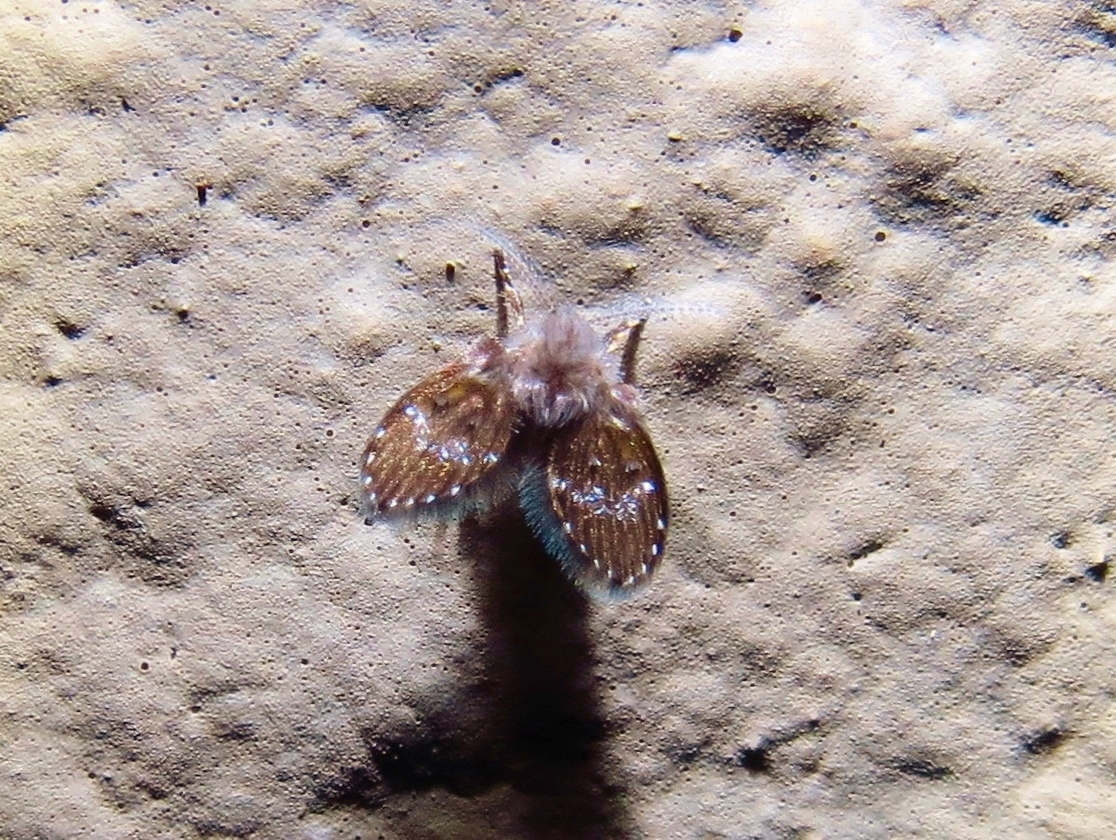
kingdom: Animalia
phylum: Arthropoda
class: Insecta
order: Diptera
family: Psychodidae
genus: Clogmia
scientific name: Clogmia albipunctatus
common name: White-spotted moth fly
